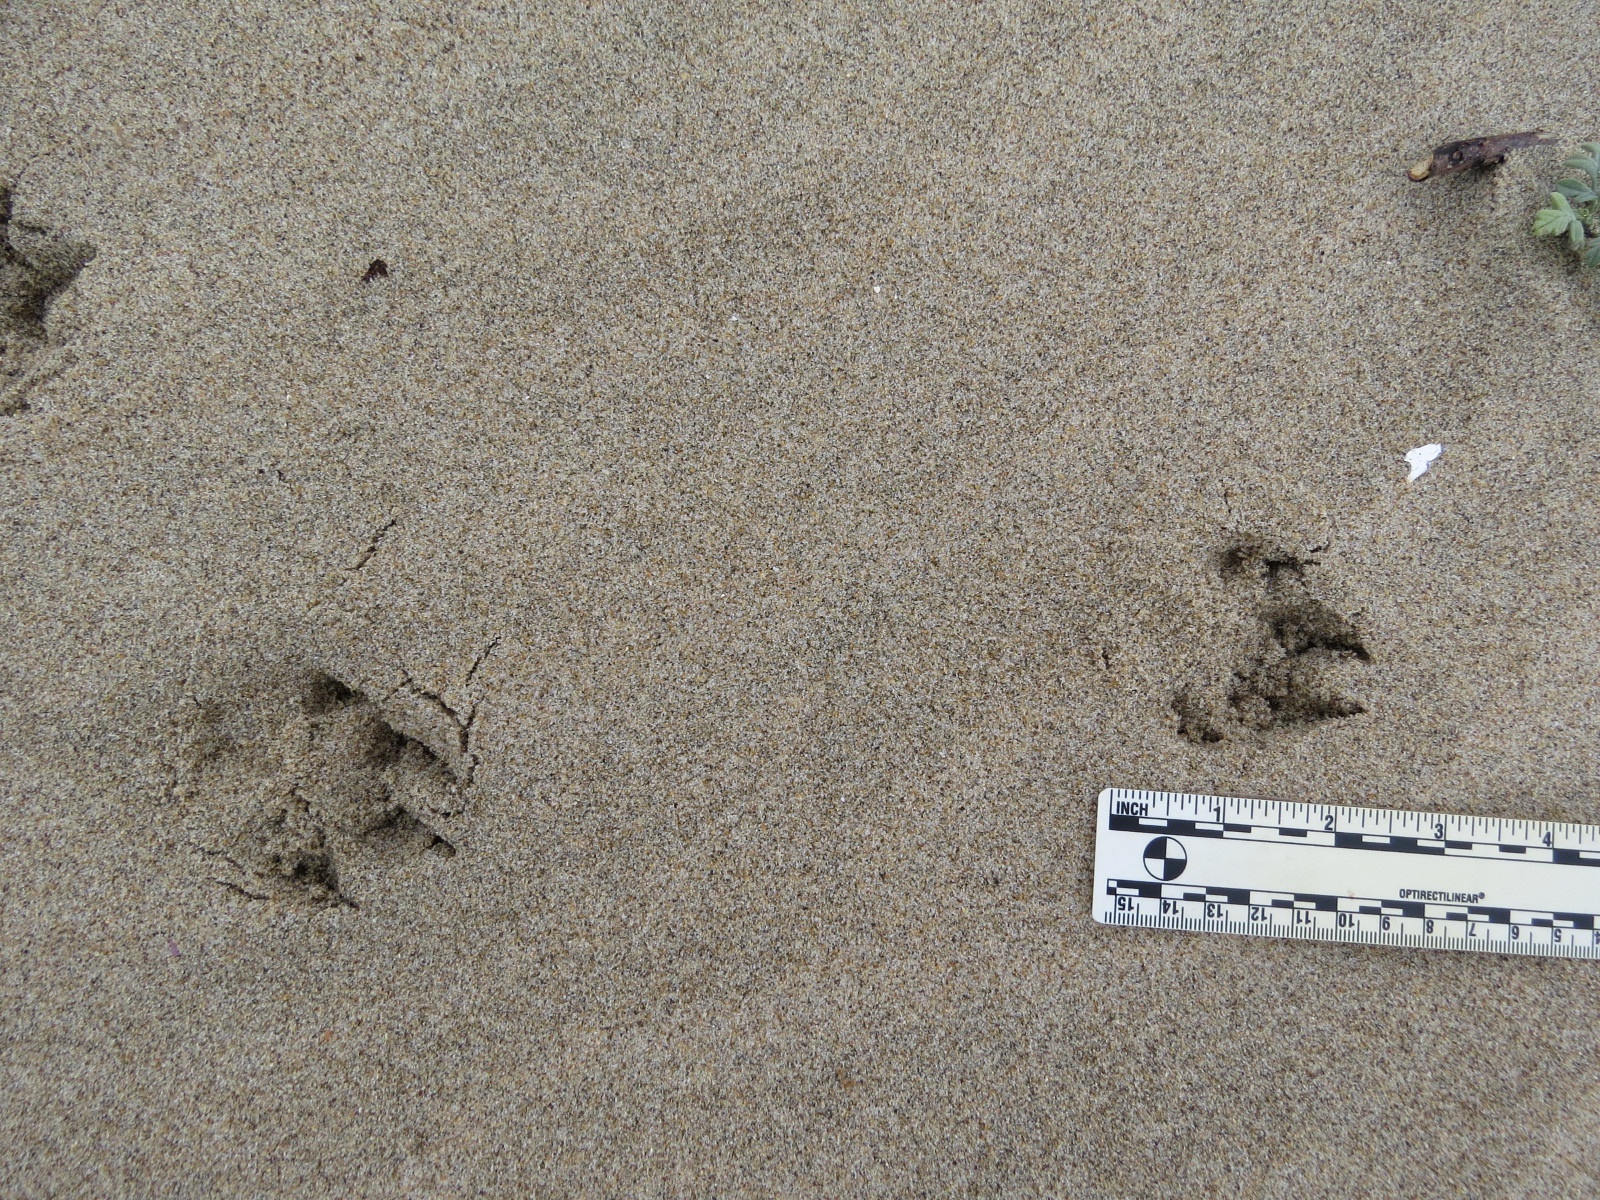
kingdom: Animalia
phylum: Chordata
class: Mammalia
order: Carnivora
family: Canidae
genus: Urocyon
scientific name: Urocyon cinereoargenteus
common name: Gray fox
